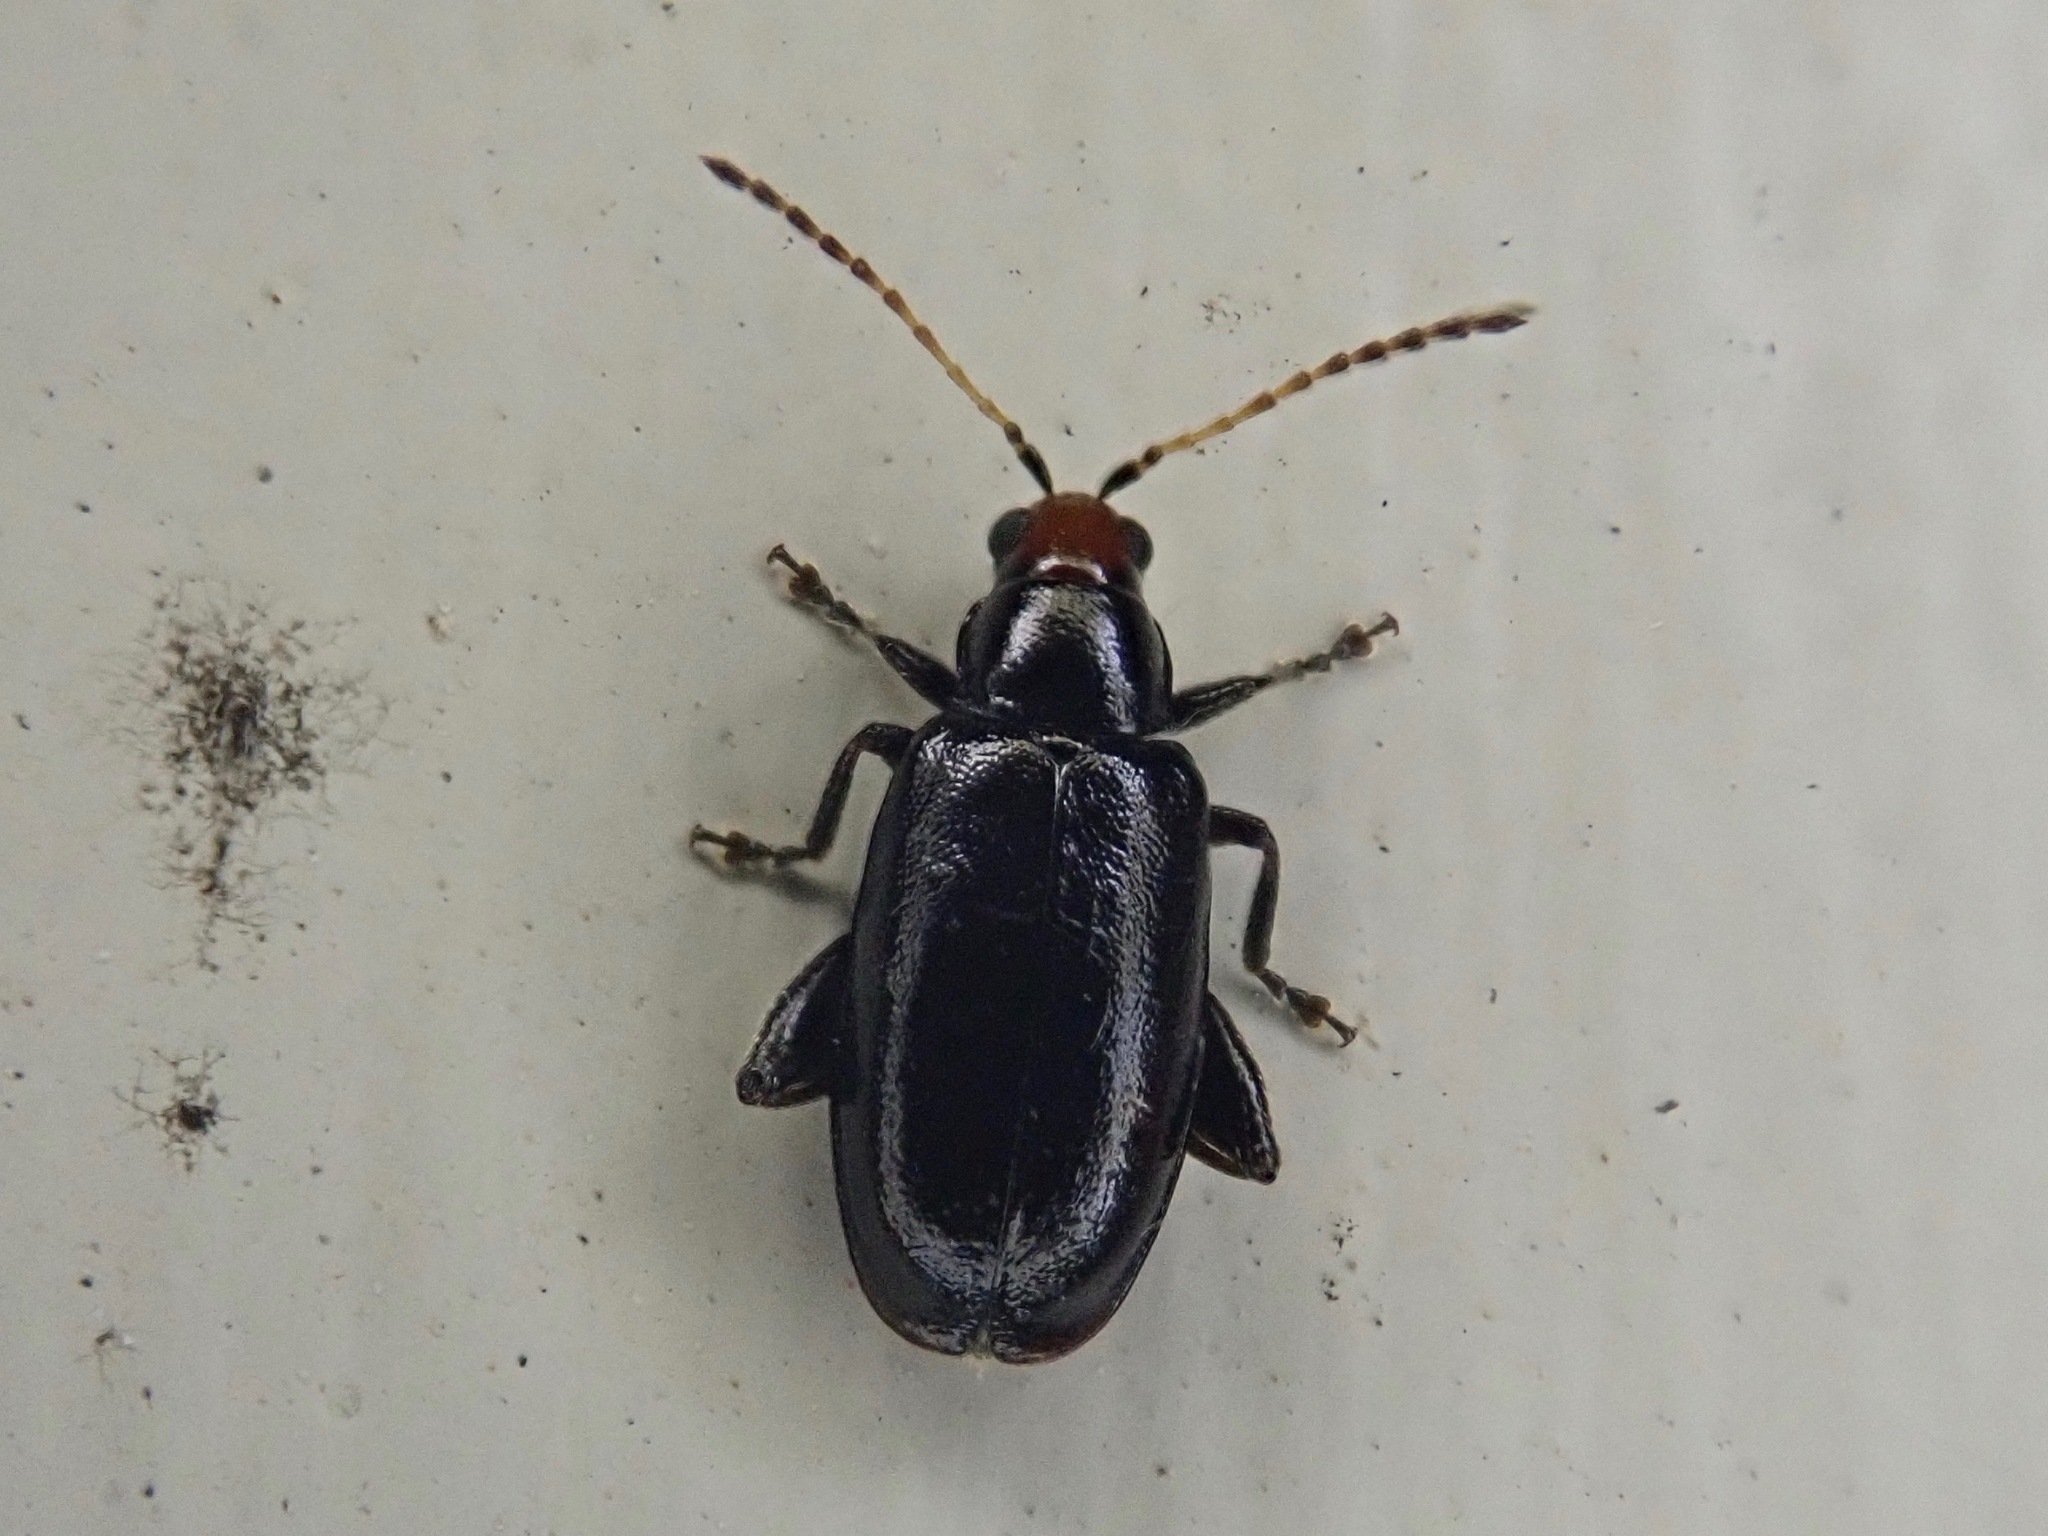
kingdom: Animalia
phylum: Arthropoda
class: Insecta
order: Coleoptera
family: Chrysomelidae
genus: Systena
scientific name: Systena frontalis
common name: Red-headed flea beetle
